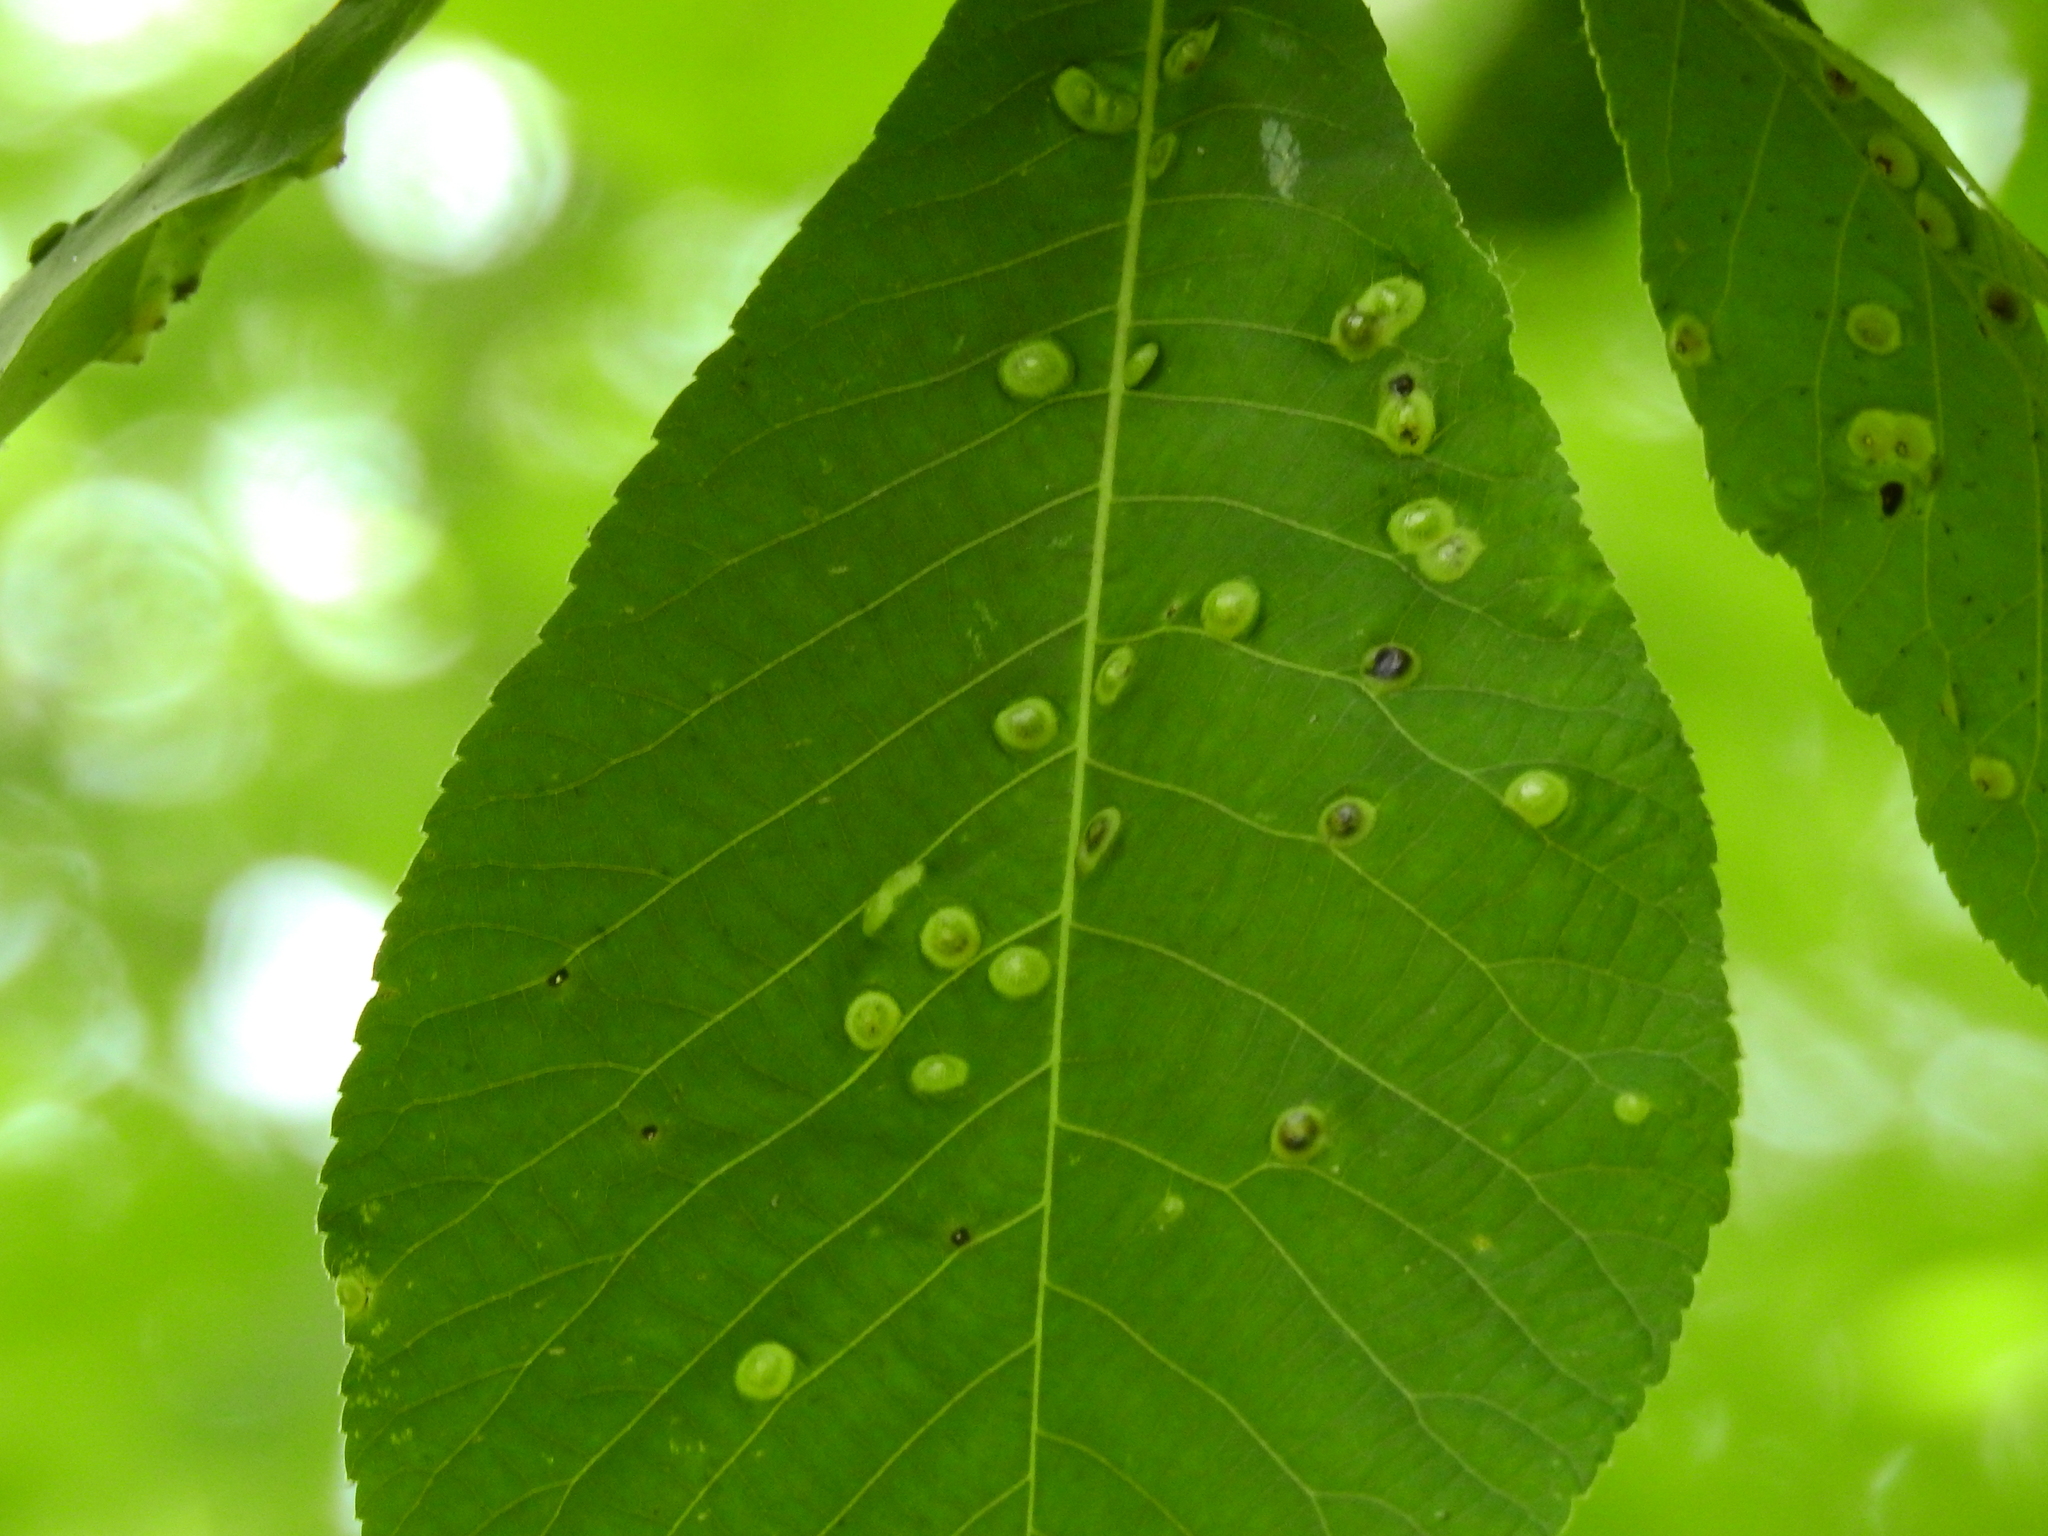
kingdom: Animalia
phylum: Arthropoda
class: Insecta
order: Hemiptera
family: Phylloxeridae
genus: Phylloxera
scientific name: Phylloxera picta
